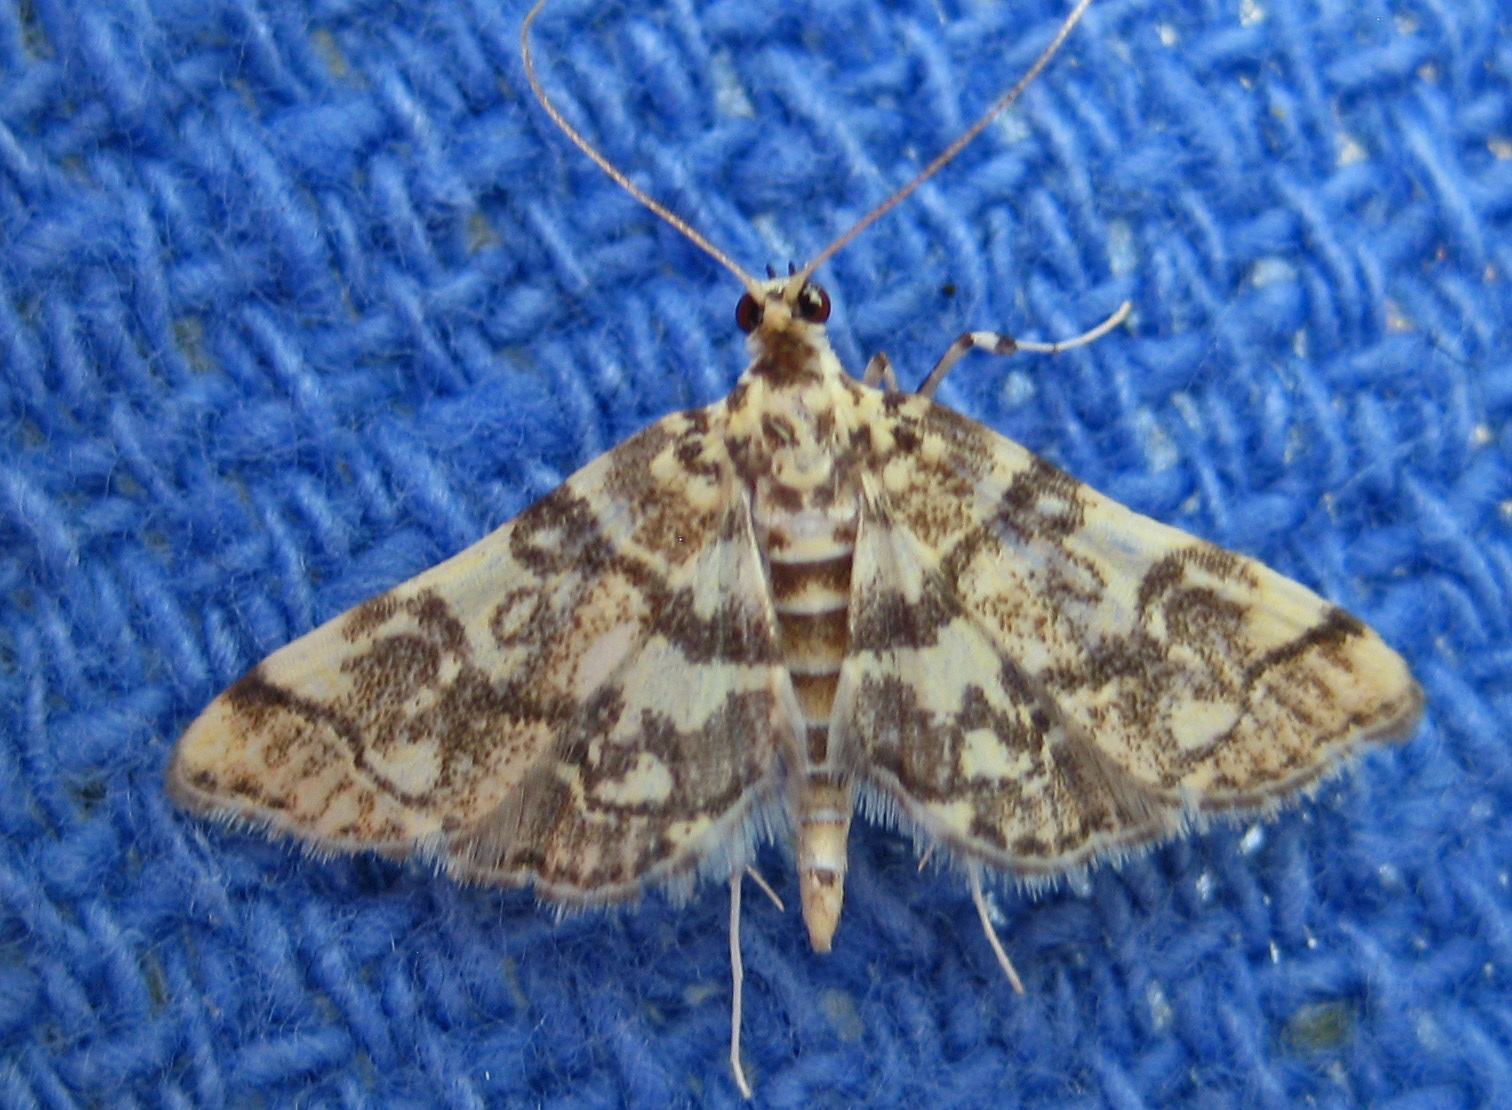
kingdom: Animalia
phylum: Arthropoda
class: Insecta
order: Lepidoptera
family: Crambidae
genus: Apogeshna
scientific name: Apogeshna stenialis
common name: Checkered apogeshna moth
